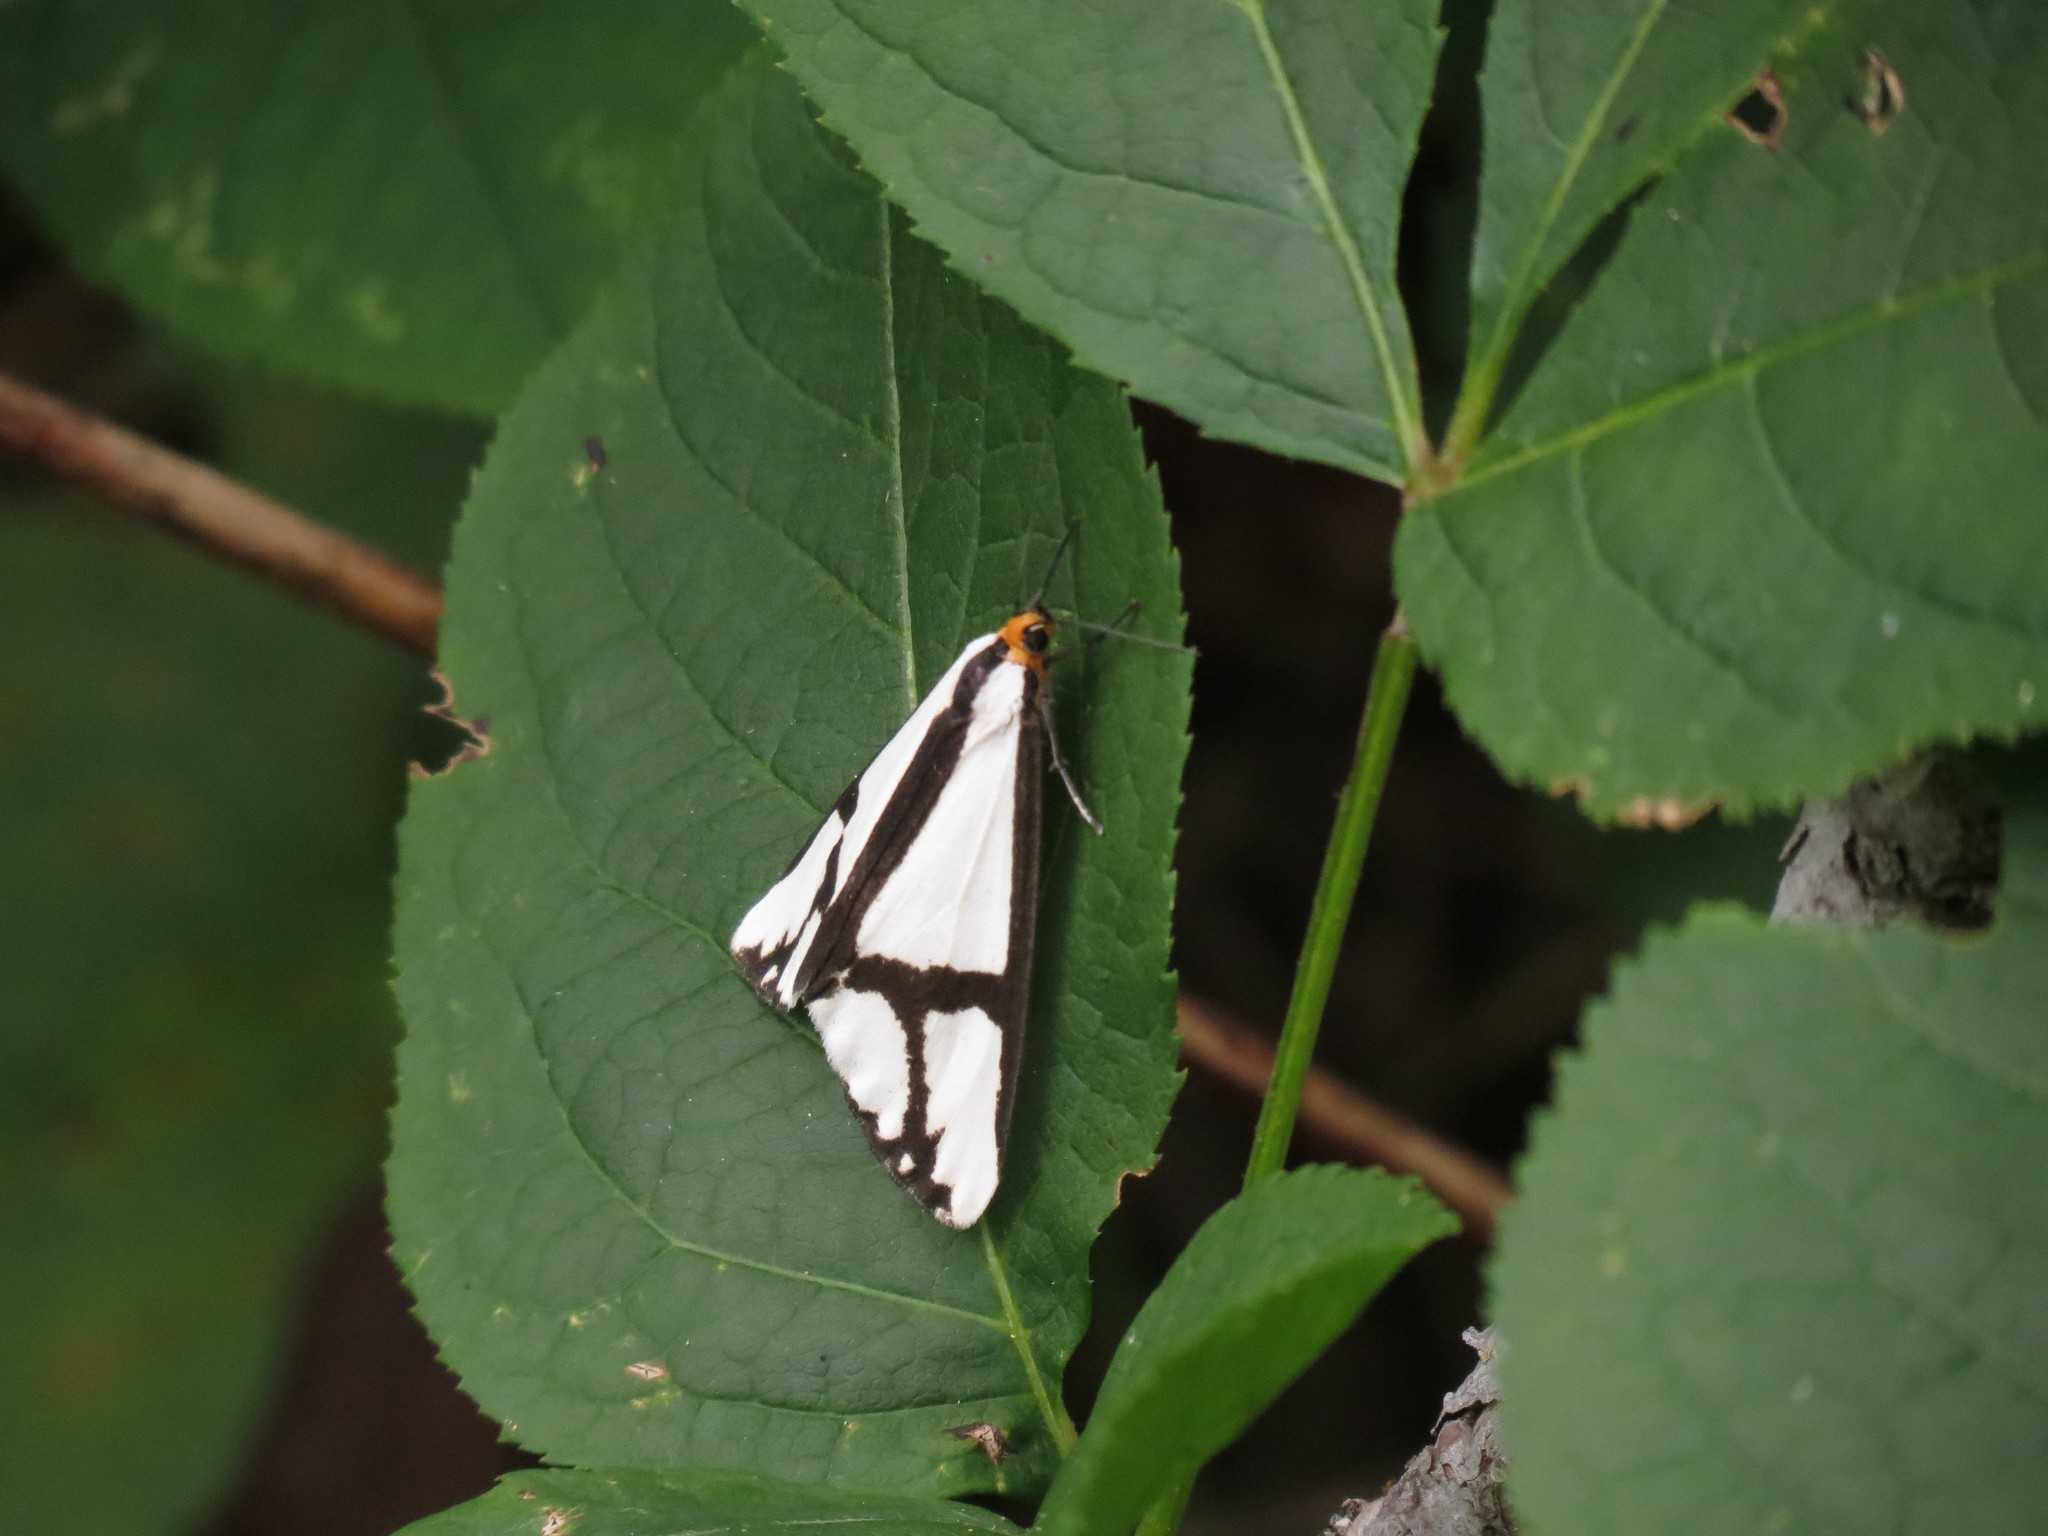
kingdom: Animalia
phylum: Arthropoda
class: Insecta
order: Lepidoptera
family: Erebidae
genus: Haploa
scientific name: Haploa contigua
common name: Neighbor moth
